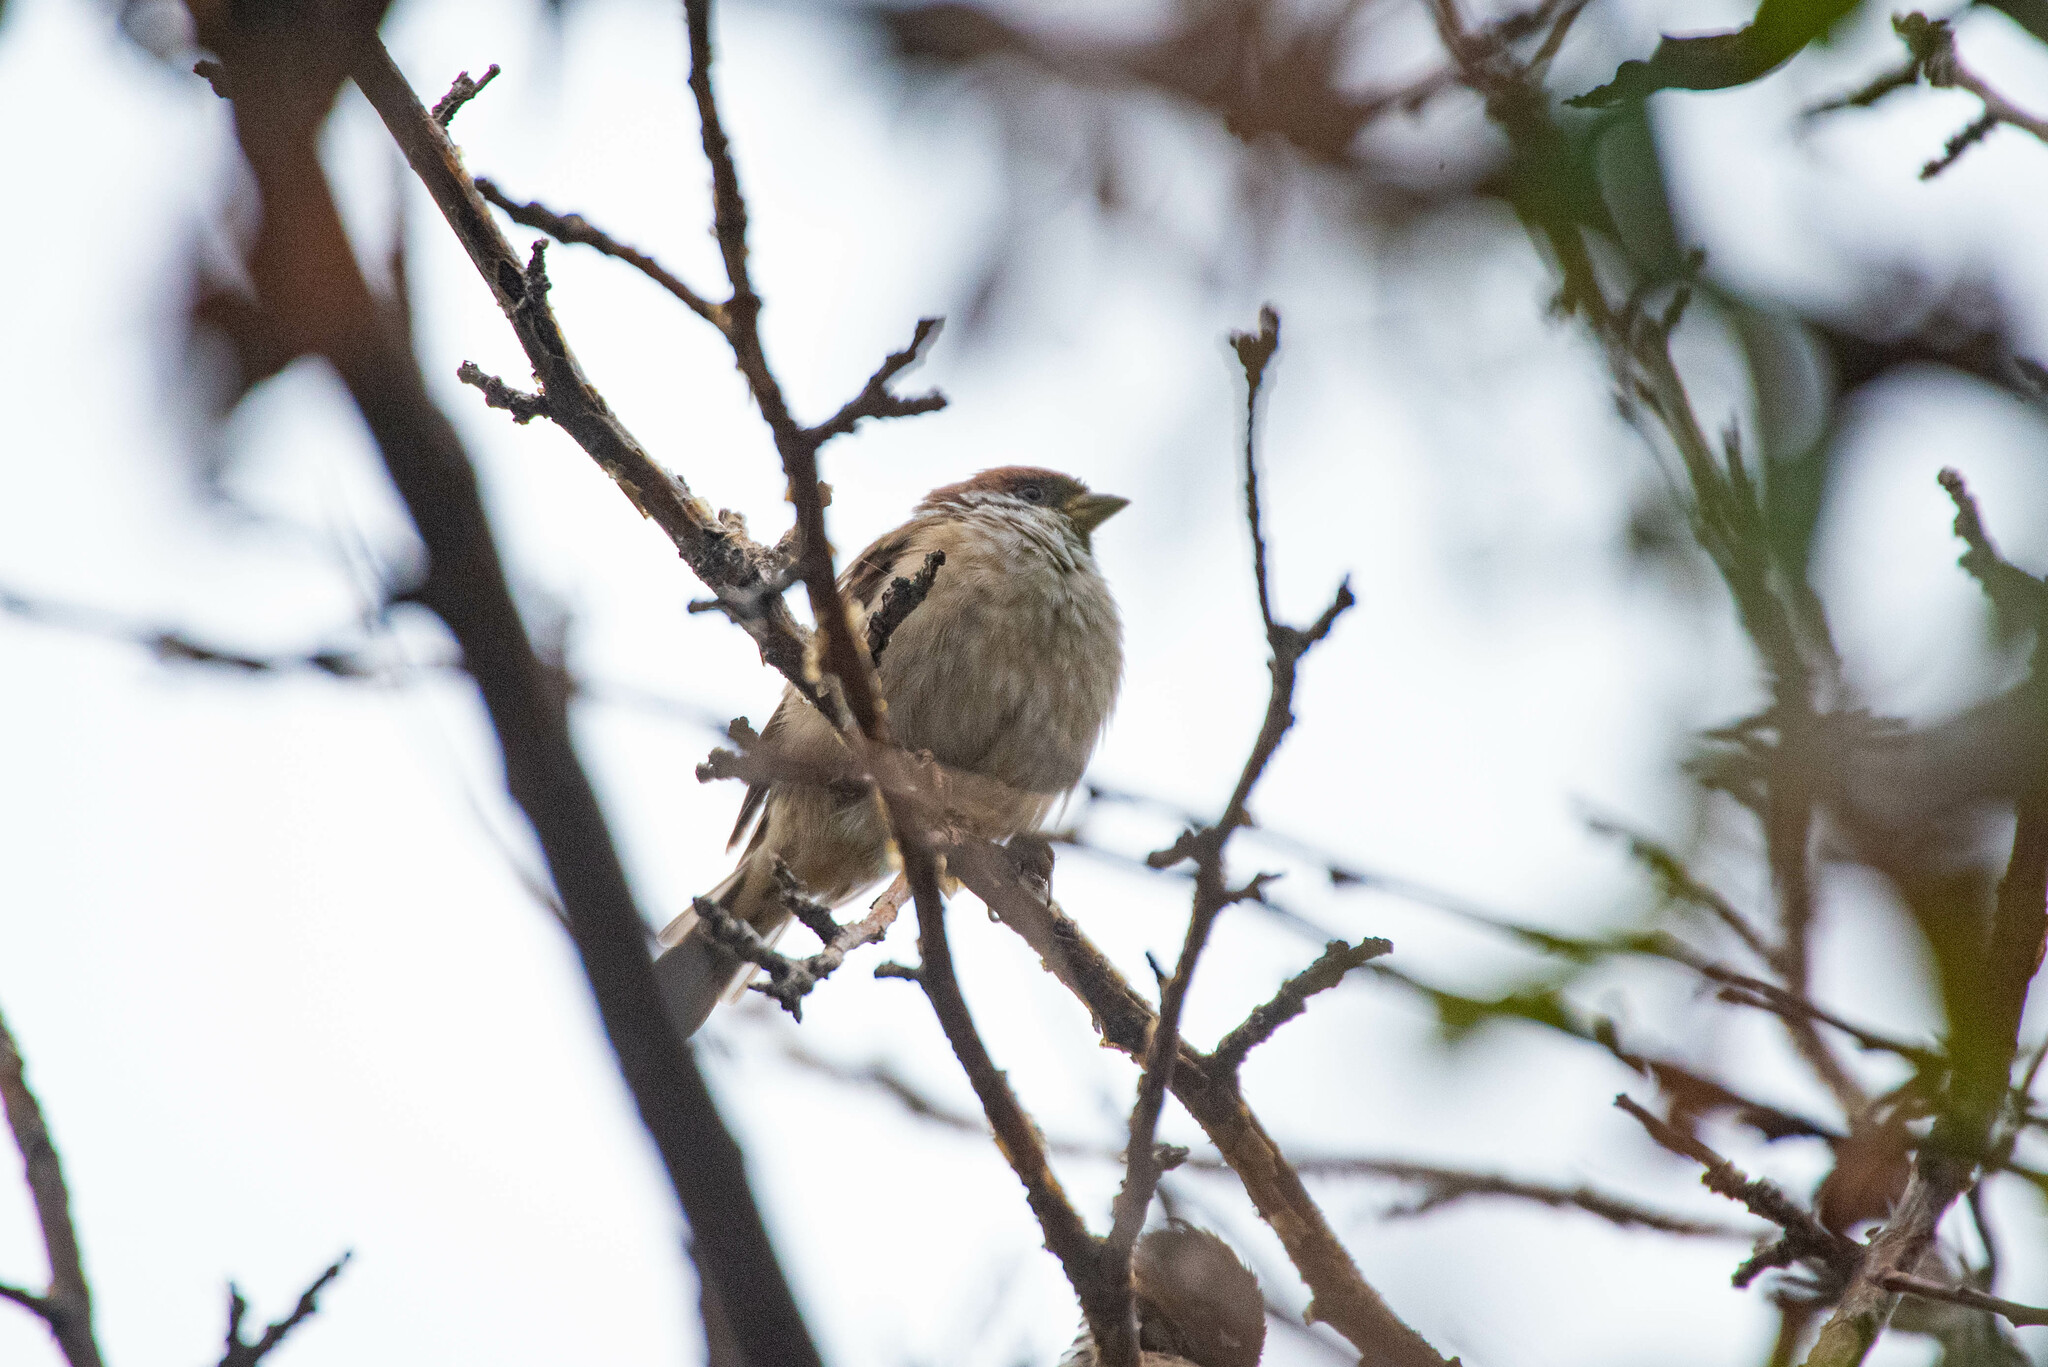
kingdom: Animalia
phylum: Chordata
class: Aves
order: Passeriformes
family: Passeridae
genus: Passer
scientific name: Passer montanus
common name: Eurasian tree sparrow
